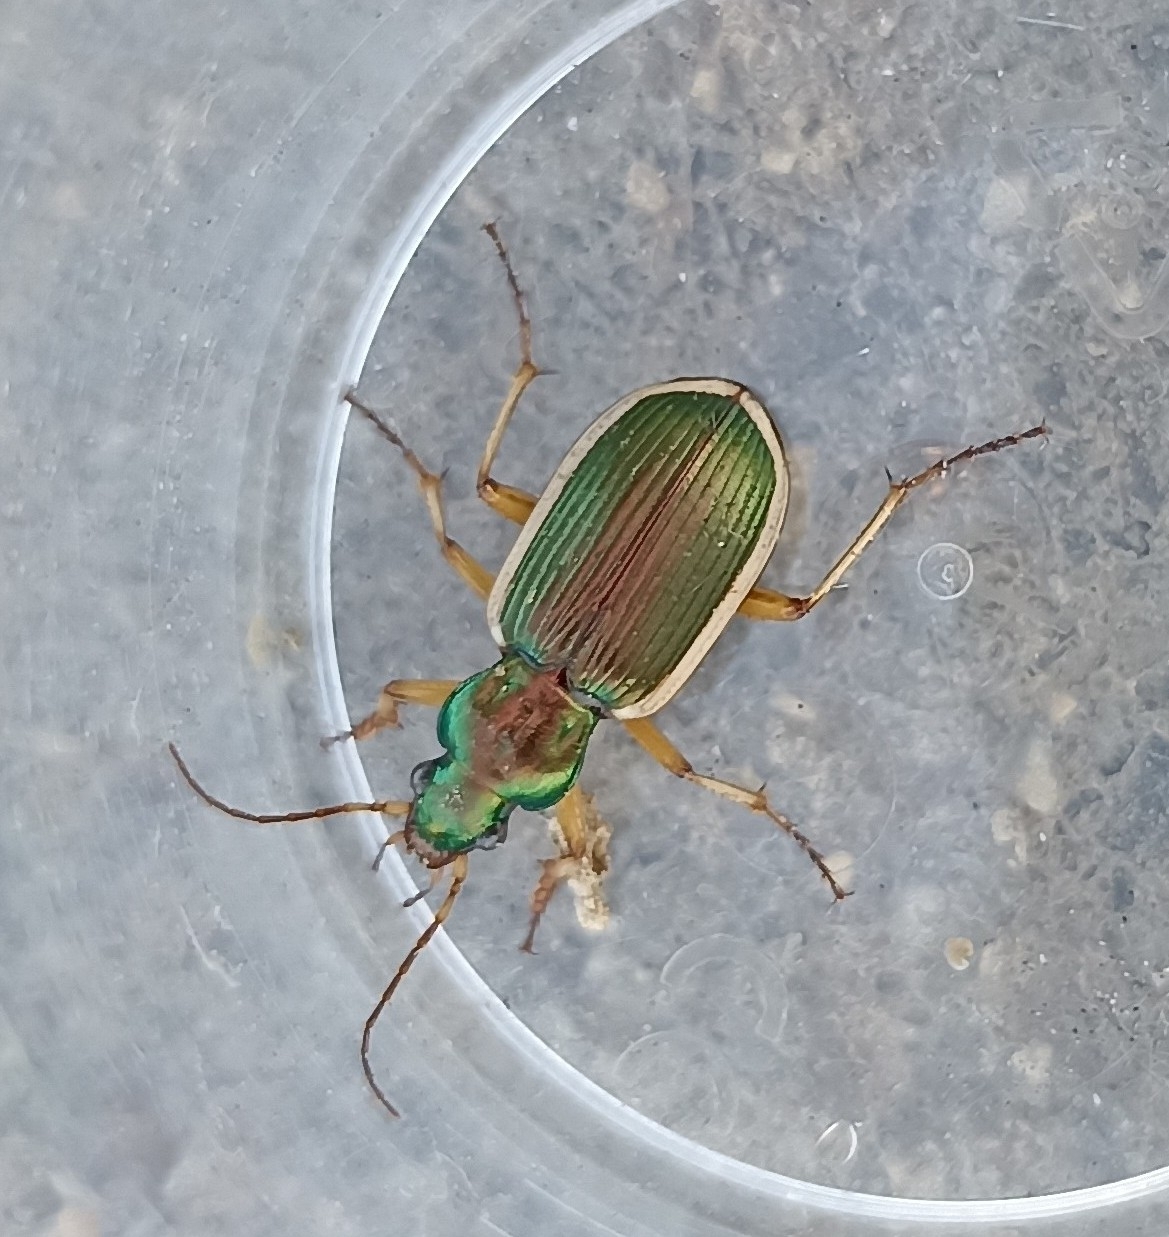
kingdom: Animalia
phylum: Arthropoda
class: Insecta
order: Coleoptera
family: Carabidae
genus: Chlaenius
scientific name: Chlaenius spoliatus
